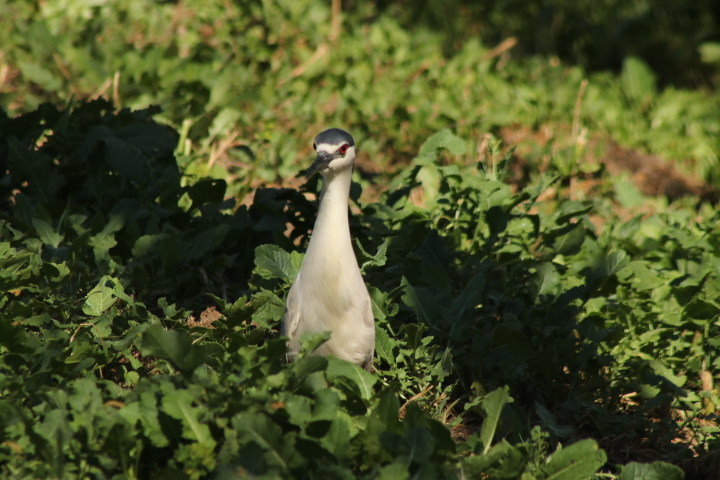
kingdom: Animalia
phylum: Chordata
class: Aves
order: Pelecaniformes
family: Ardeidae
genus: Nycticorax
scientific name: Nycticorax nycticorax
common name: Black-crowned night heron
